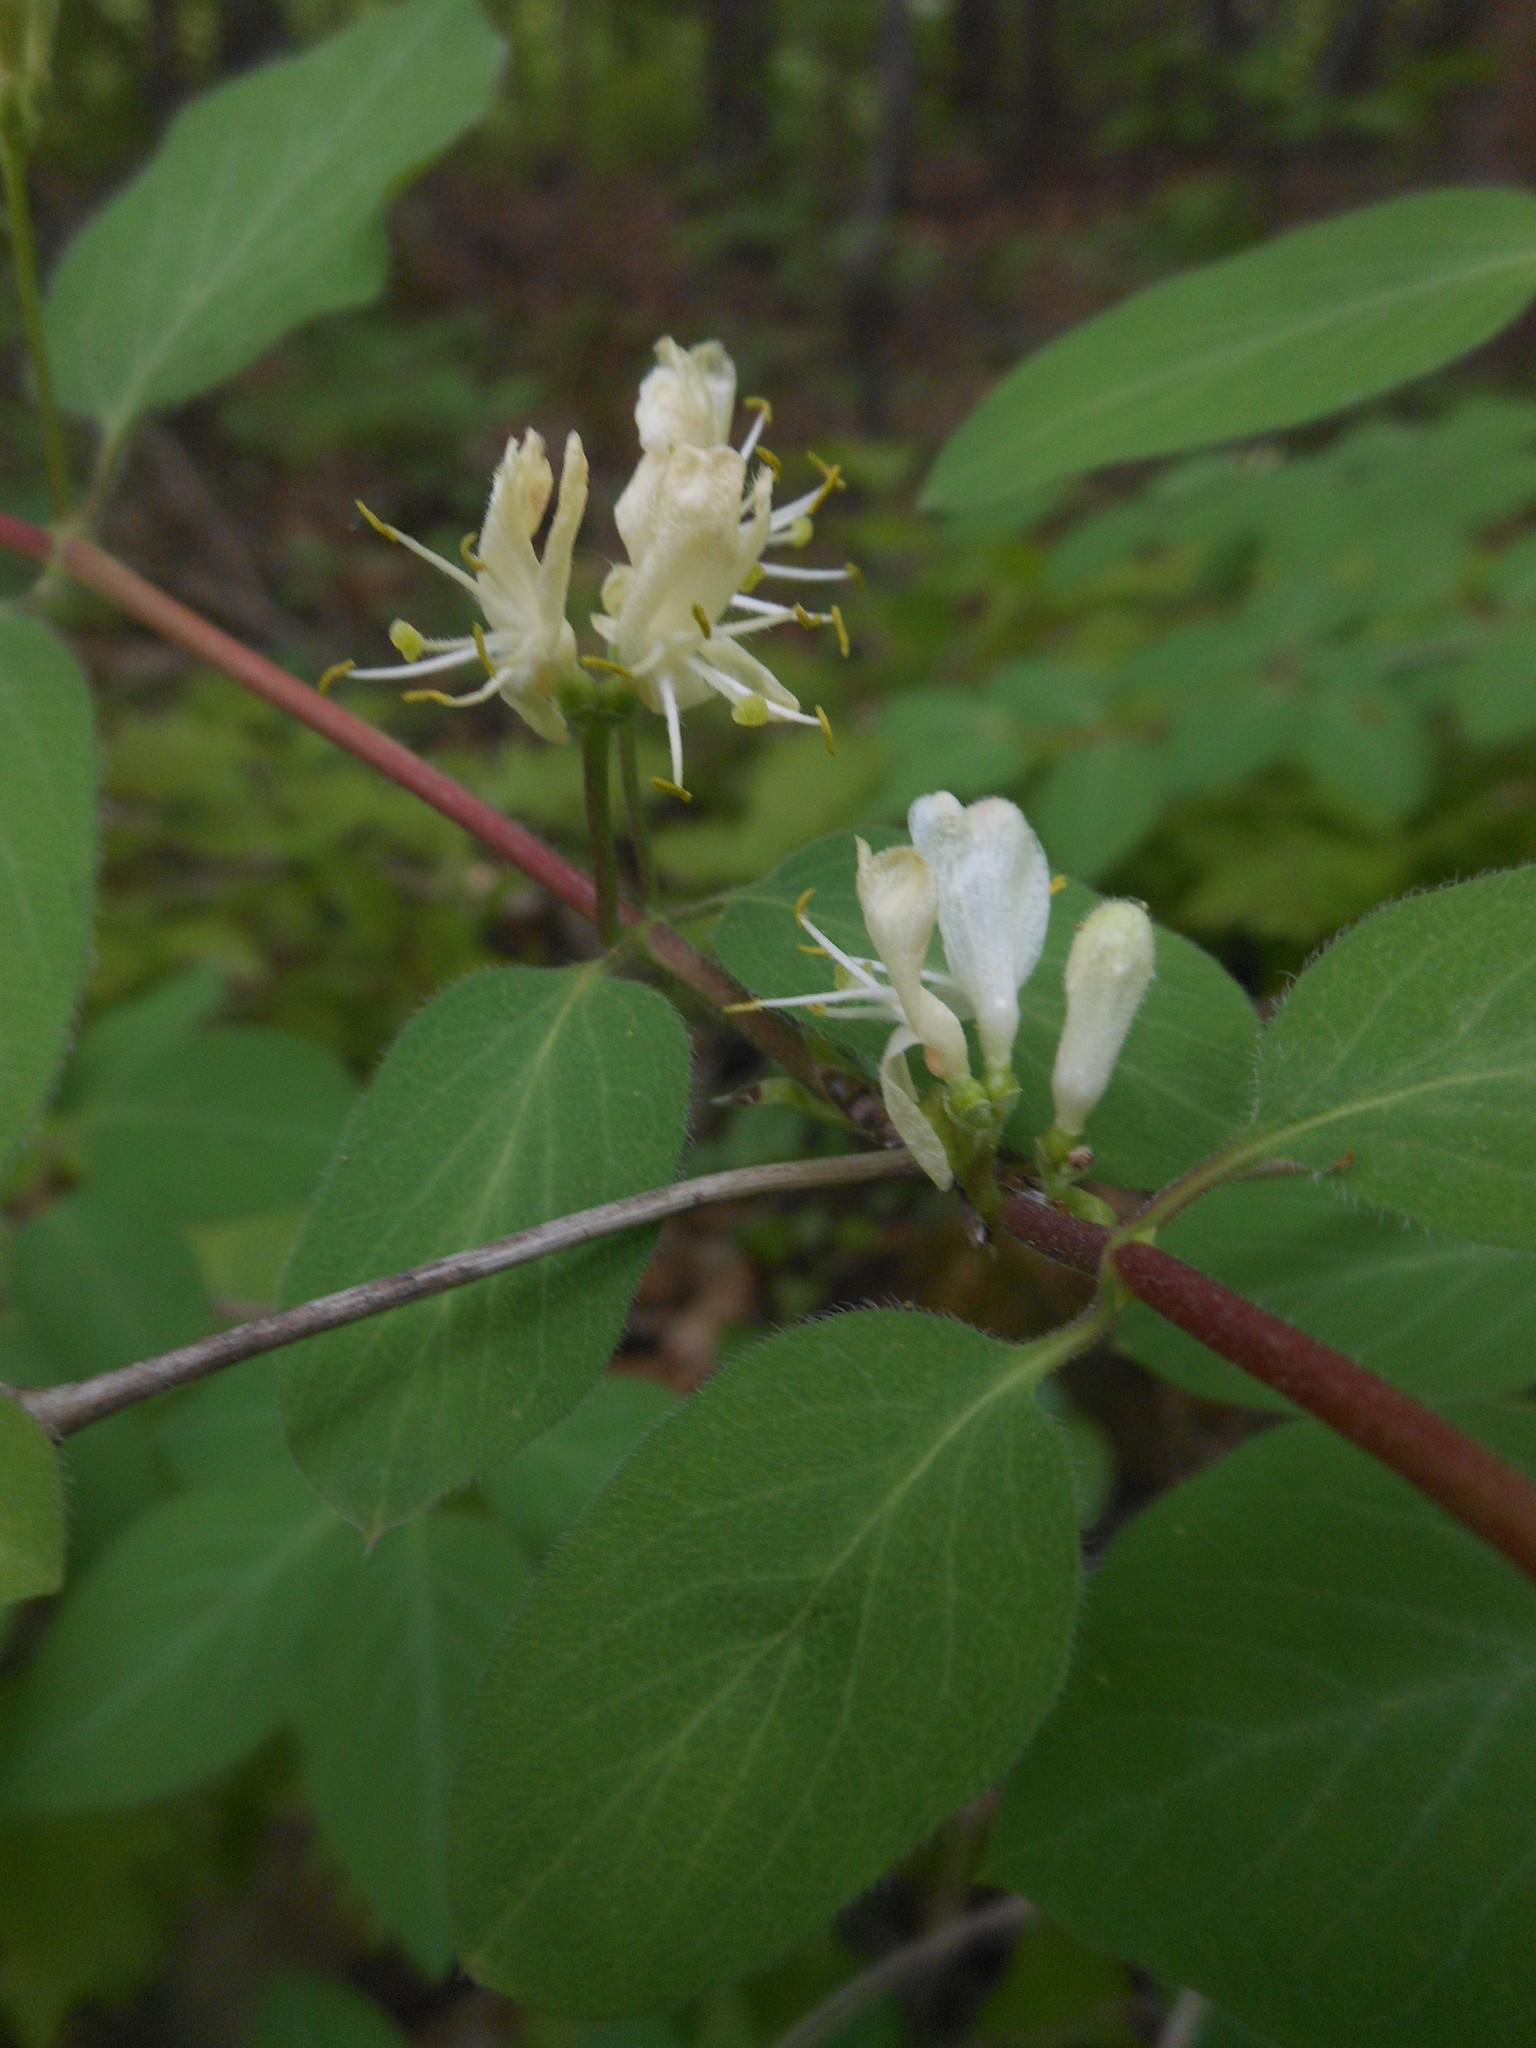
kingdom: Plantae
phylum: Tracheophyta
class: Magnoliopsida
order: Dipsacales
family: Caprifoliaceae
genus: Lonicera
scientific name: Lonicera xylosteum
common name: Fly honeysuckle
